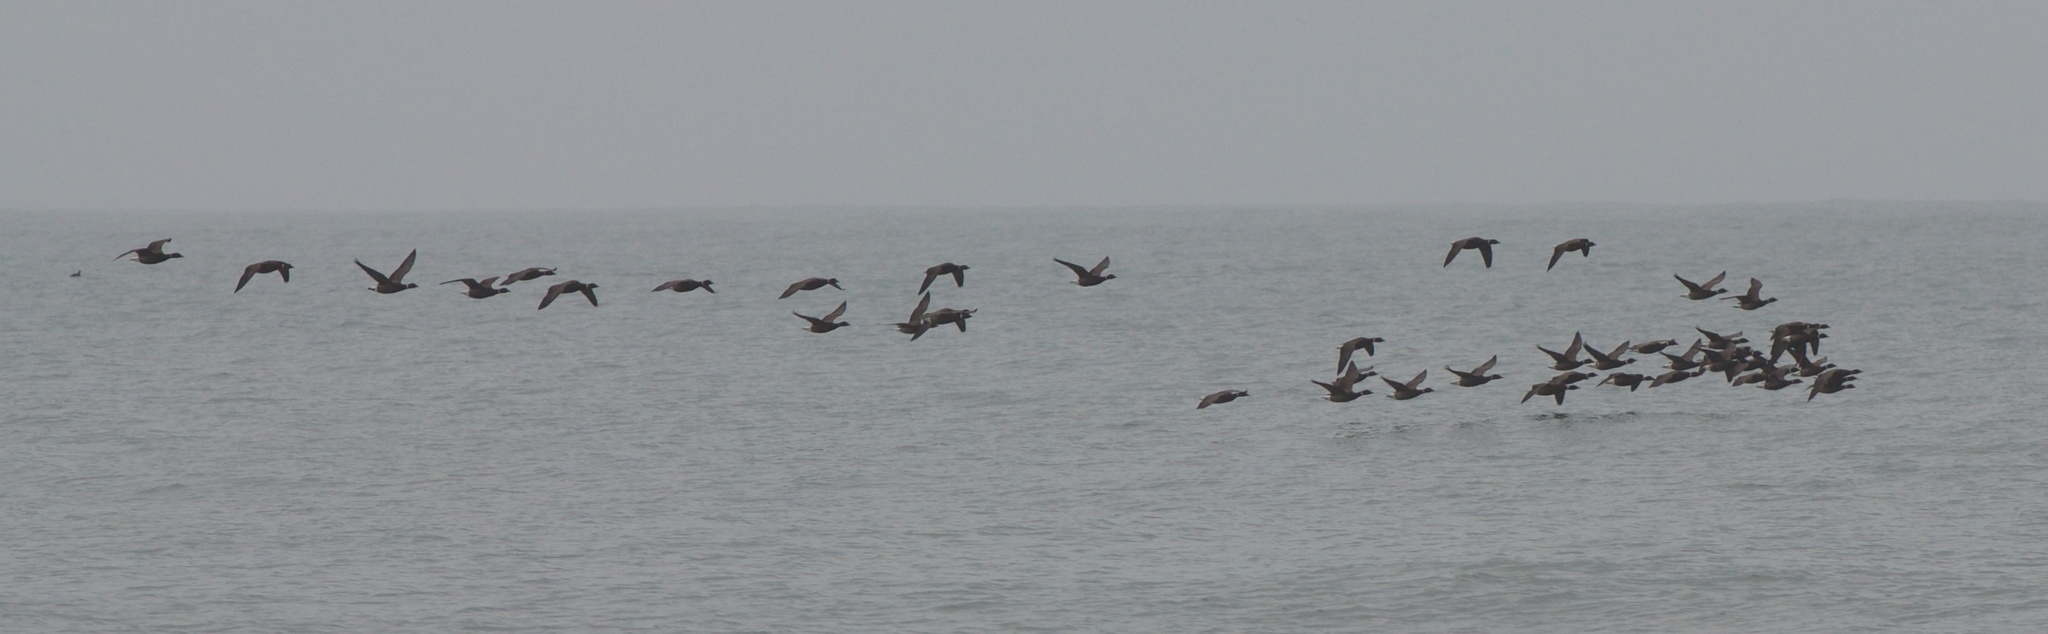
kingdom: Animalia
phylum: Chordata
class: Aves
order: Anseriformes
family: Anatidae
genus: Branta
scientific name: Branta bernicla
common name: Brant goose
